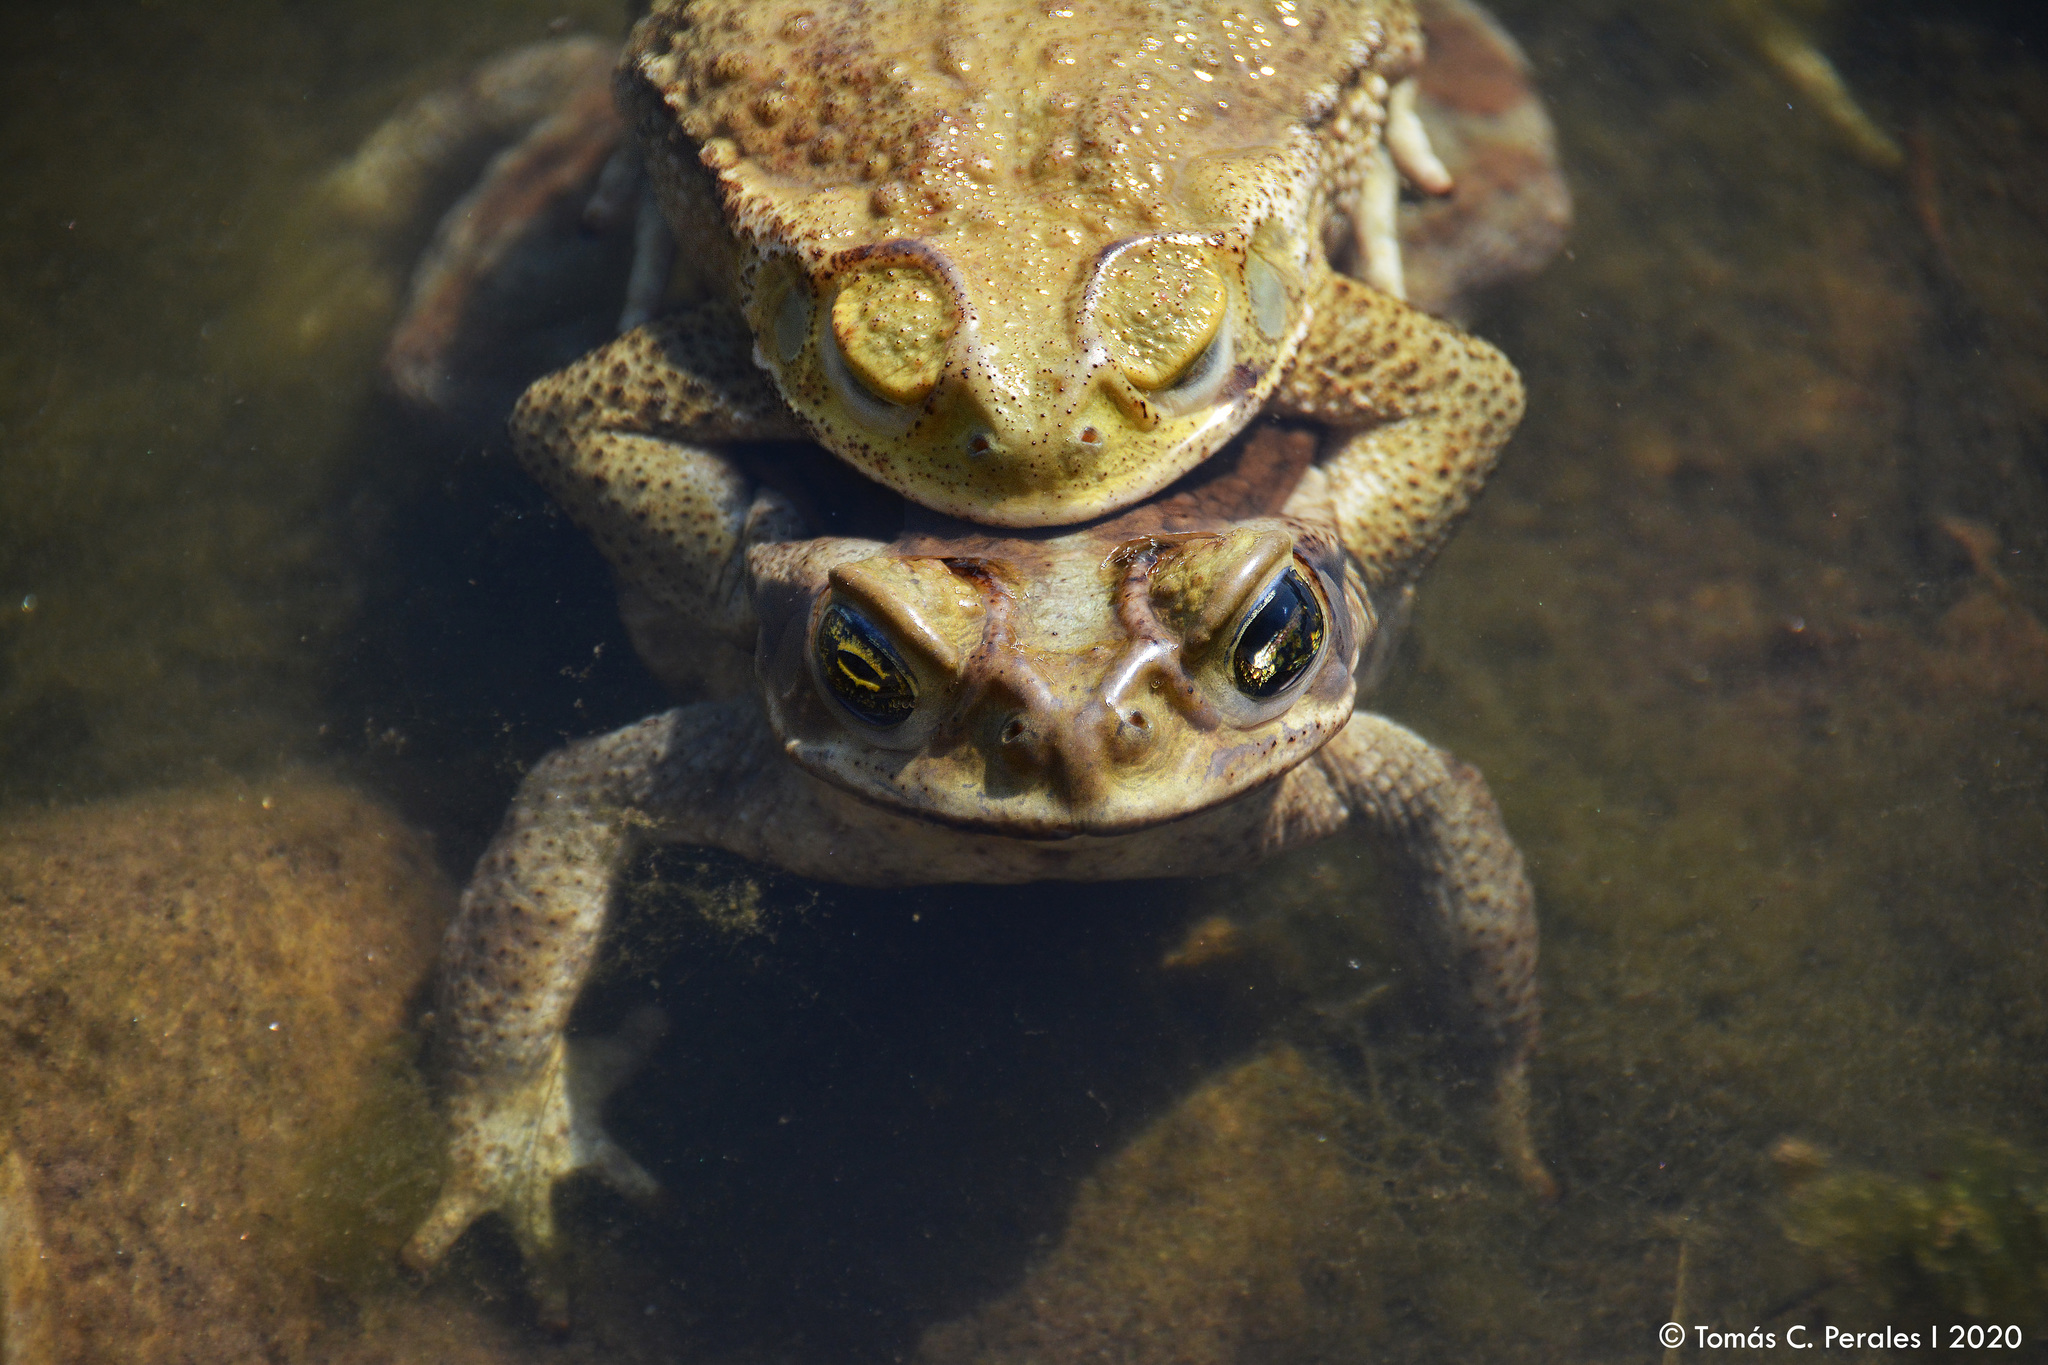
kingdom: Animalia
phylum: Chordata
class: Amphibia
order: Anura
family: Bufonidae
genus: Rhinella
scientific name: Rhinella arenarum
